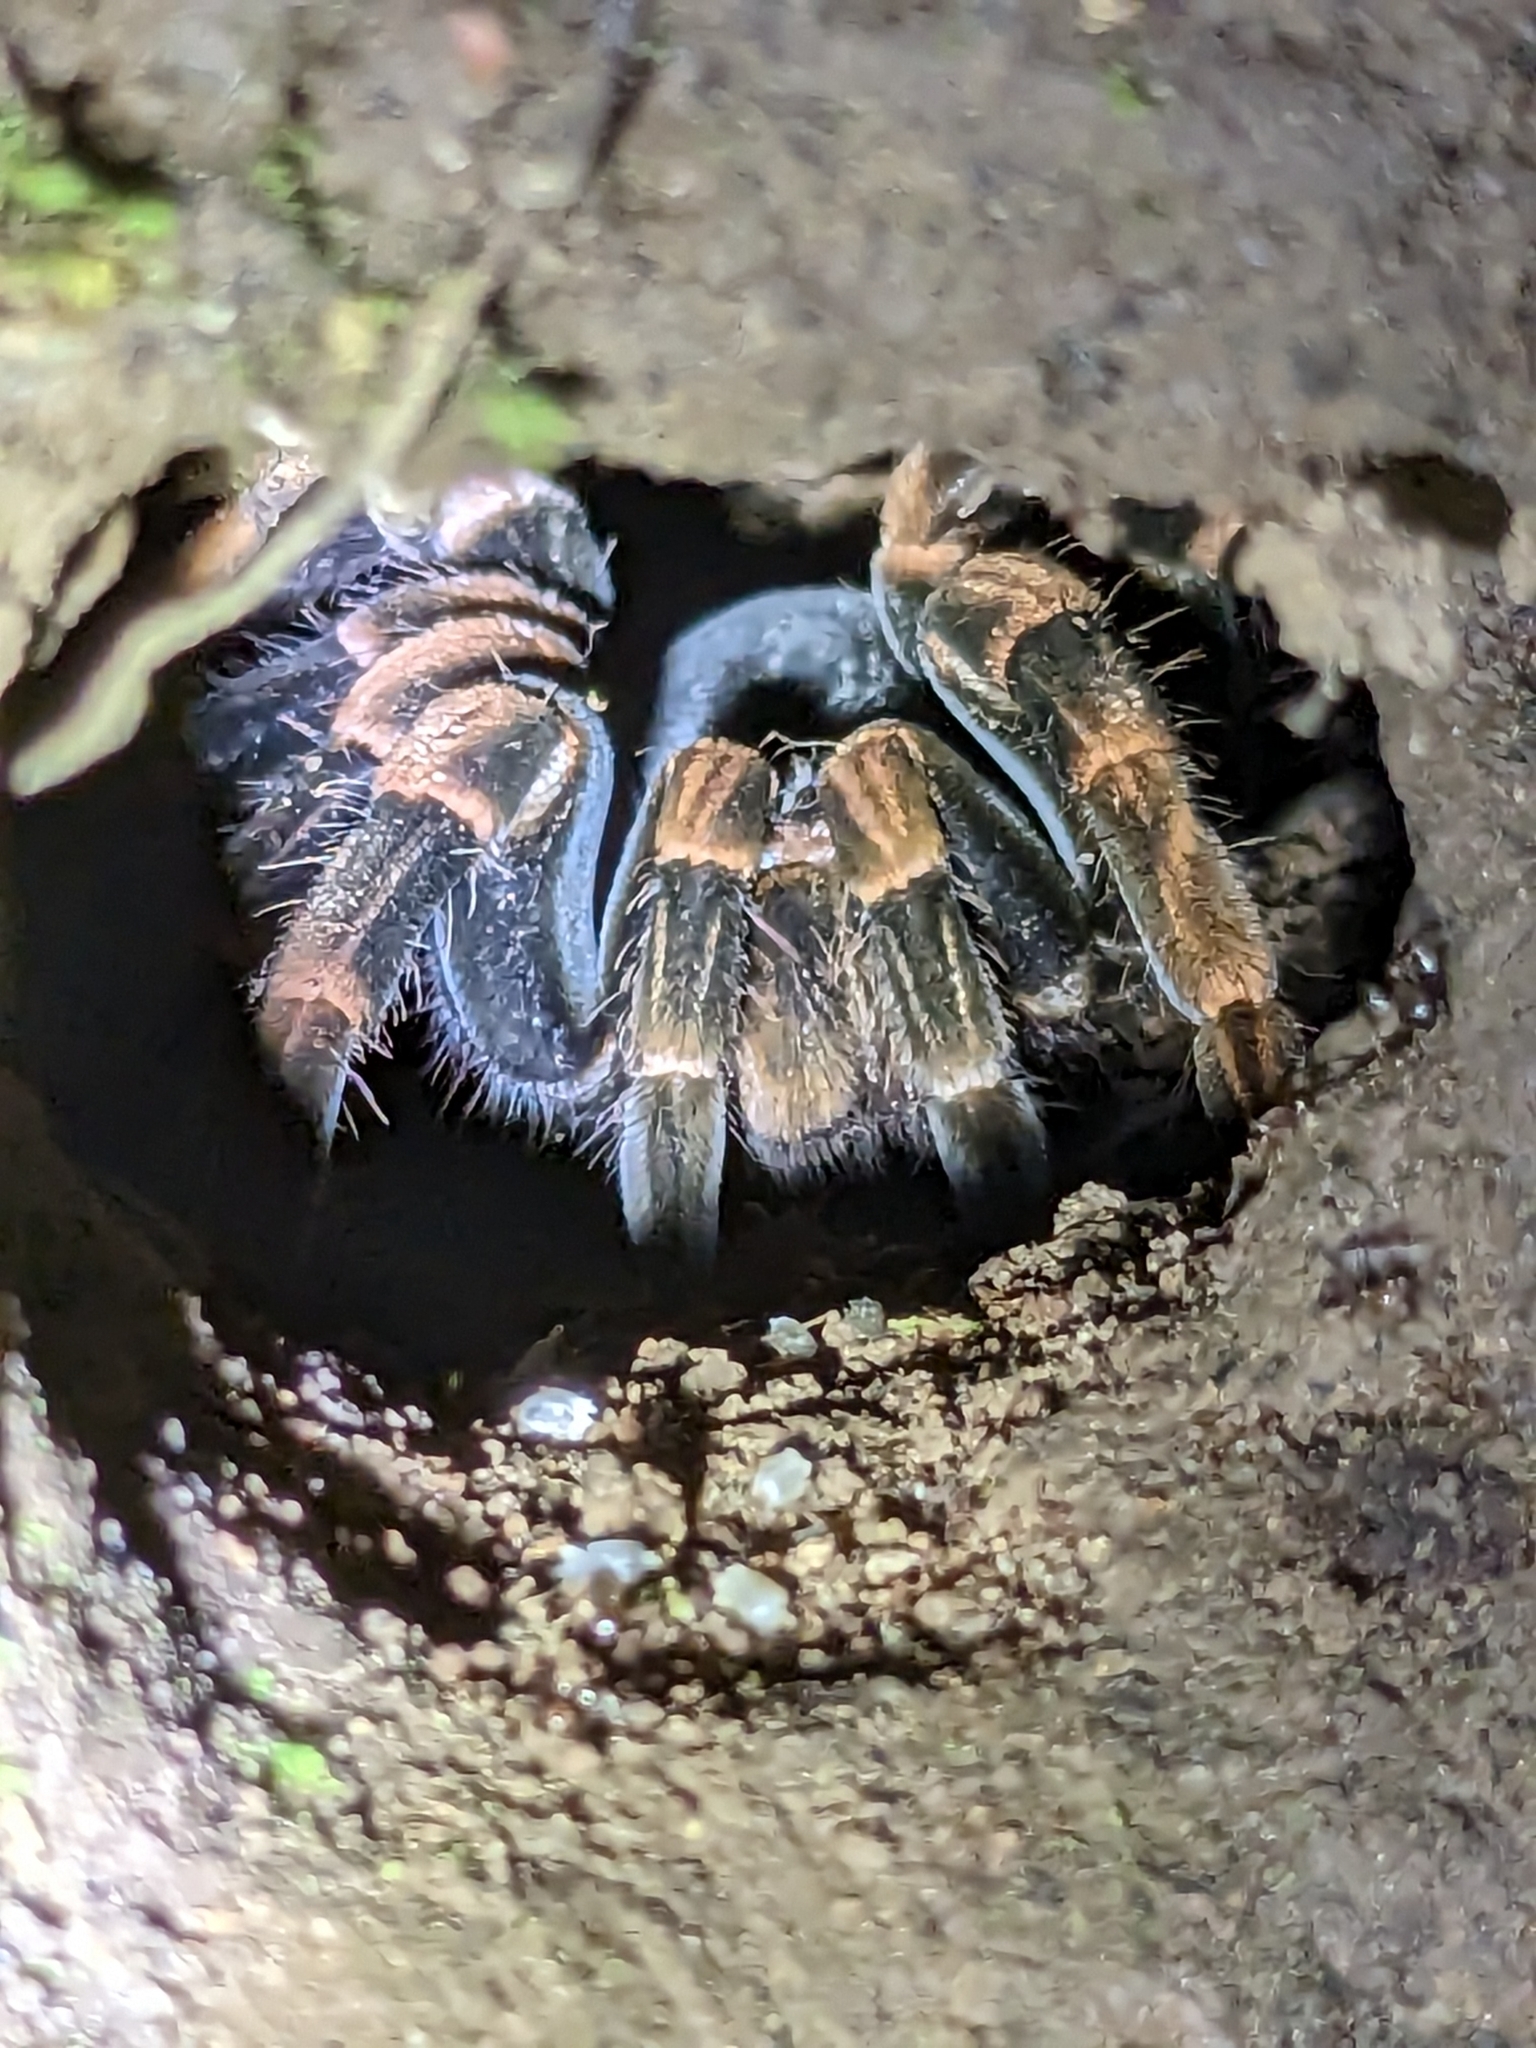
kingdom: Animalia
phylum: Arthropoda
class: Arachnida
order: Araneae
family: Theraphosidae
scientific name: Theraphosidae
